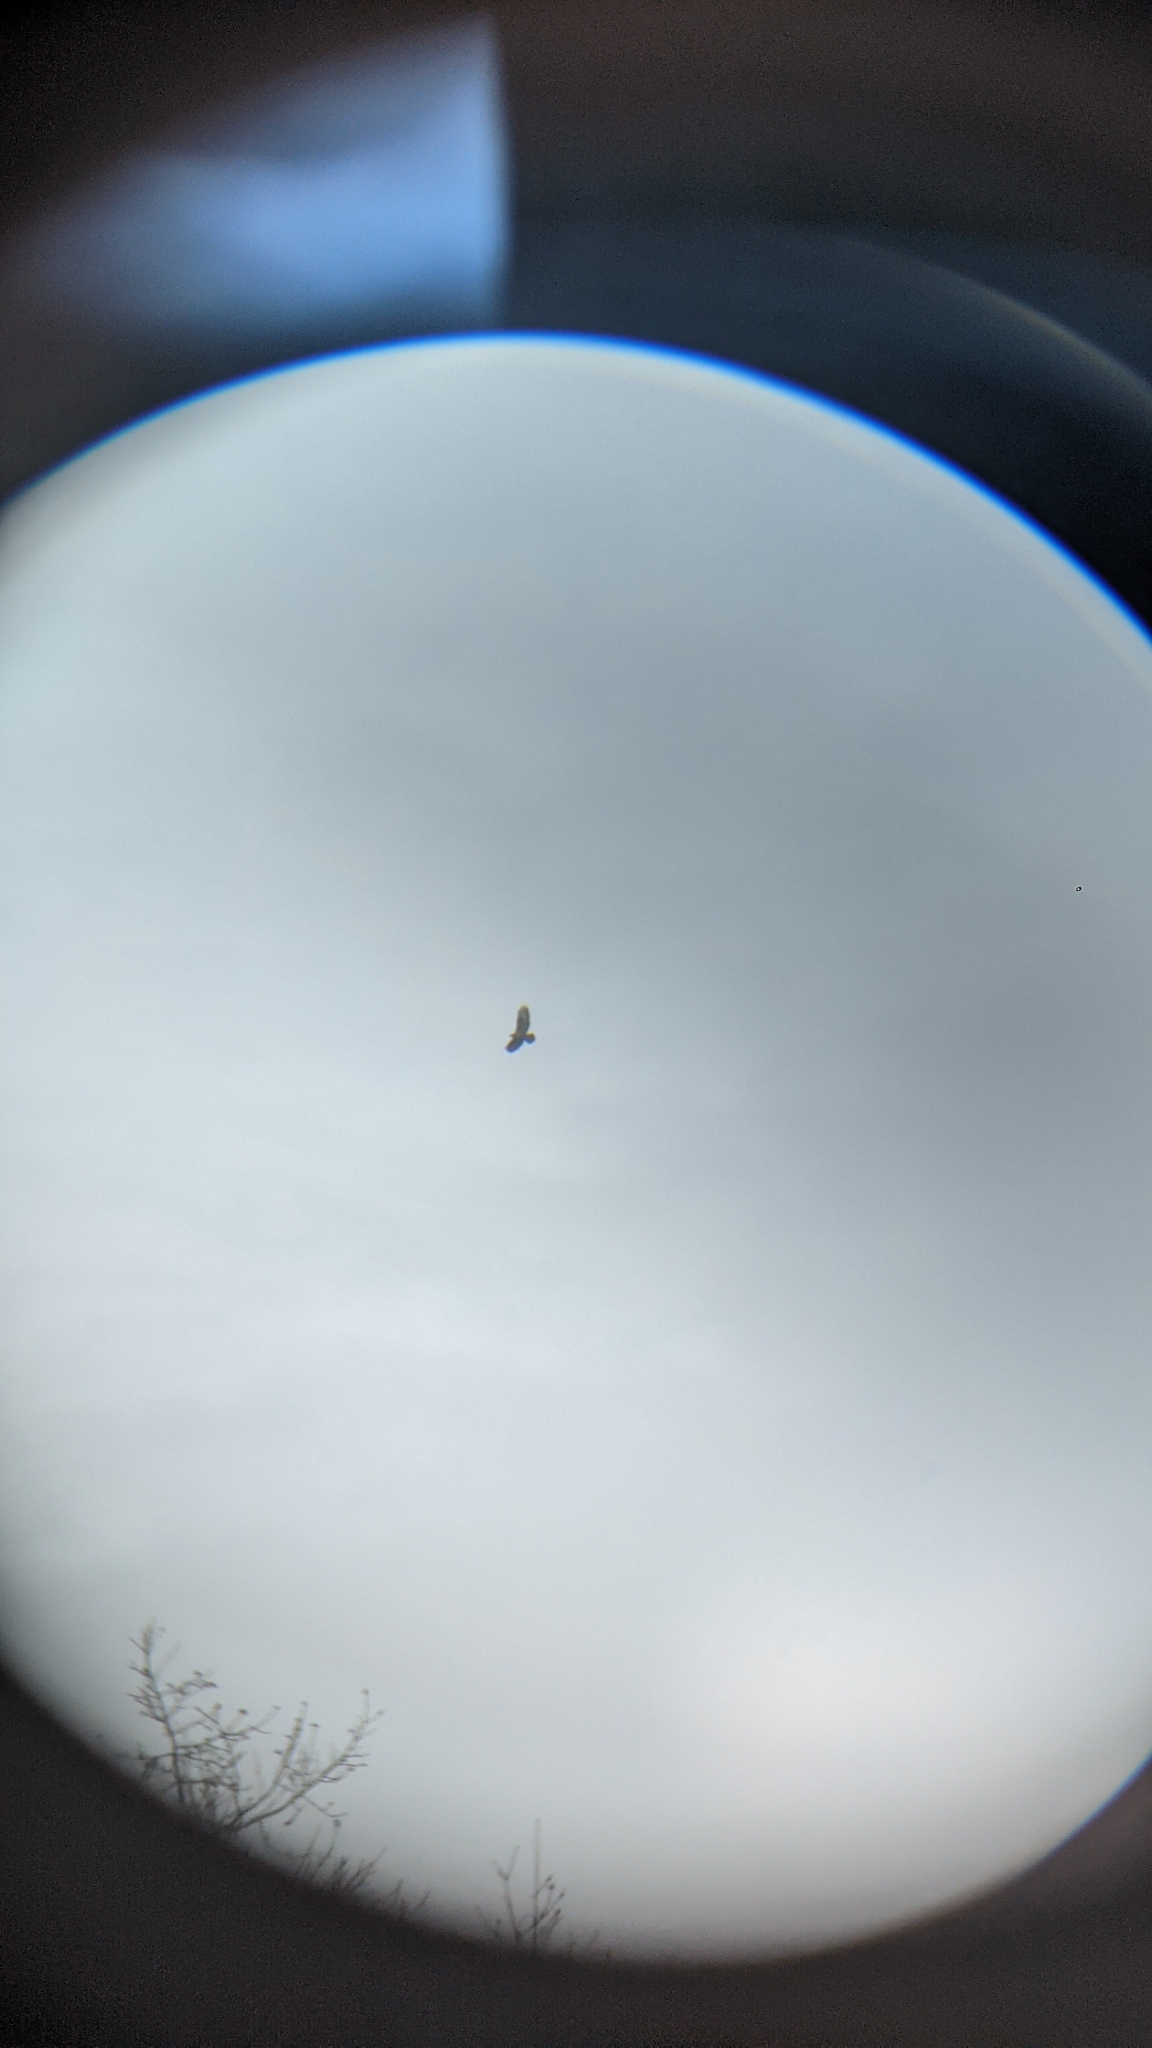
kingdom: Animalia
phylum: Chordata
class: Aves
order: Accipitriformes
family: Accipitridae
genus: Buteo
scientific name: Buteo buteo
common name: Common buzzard
